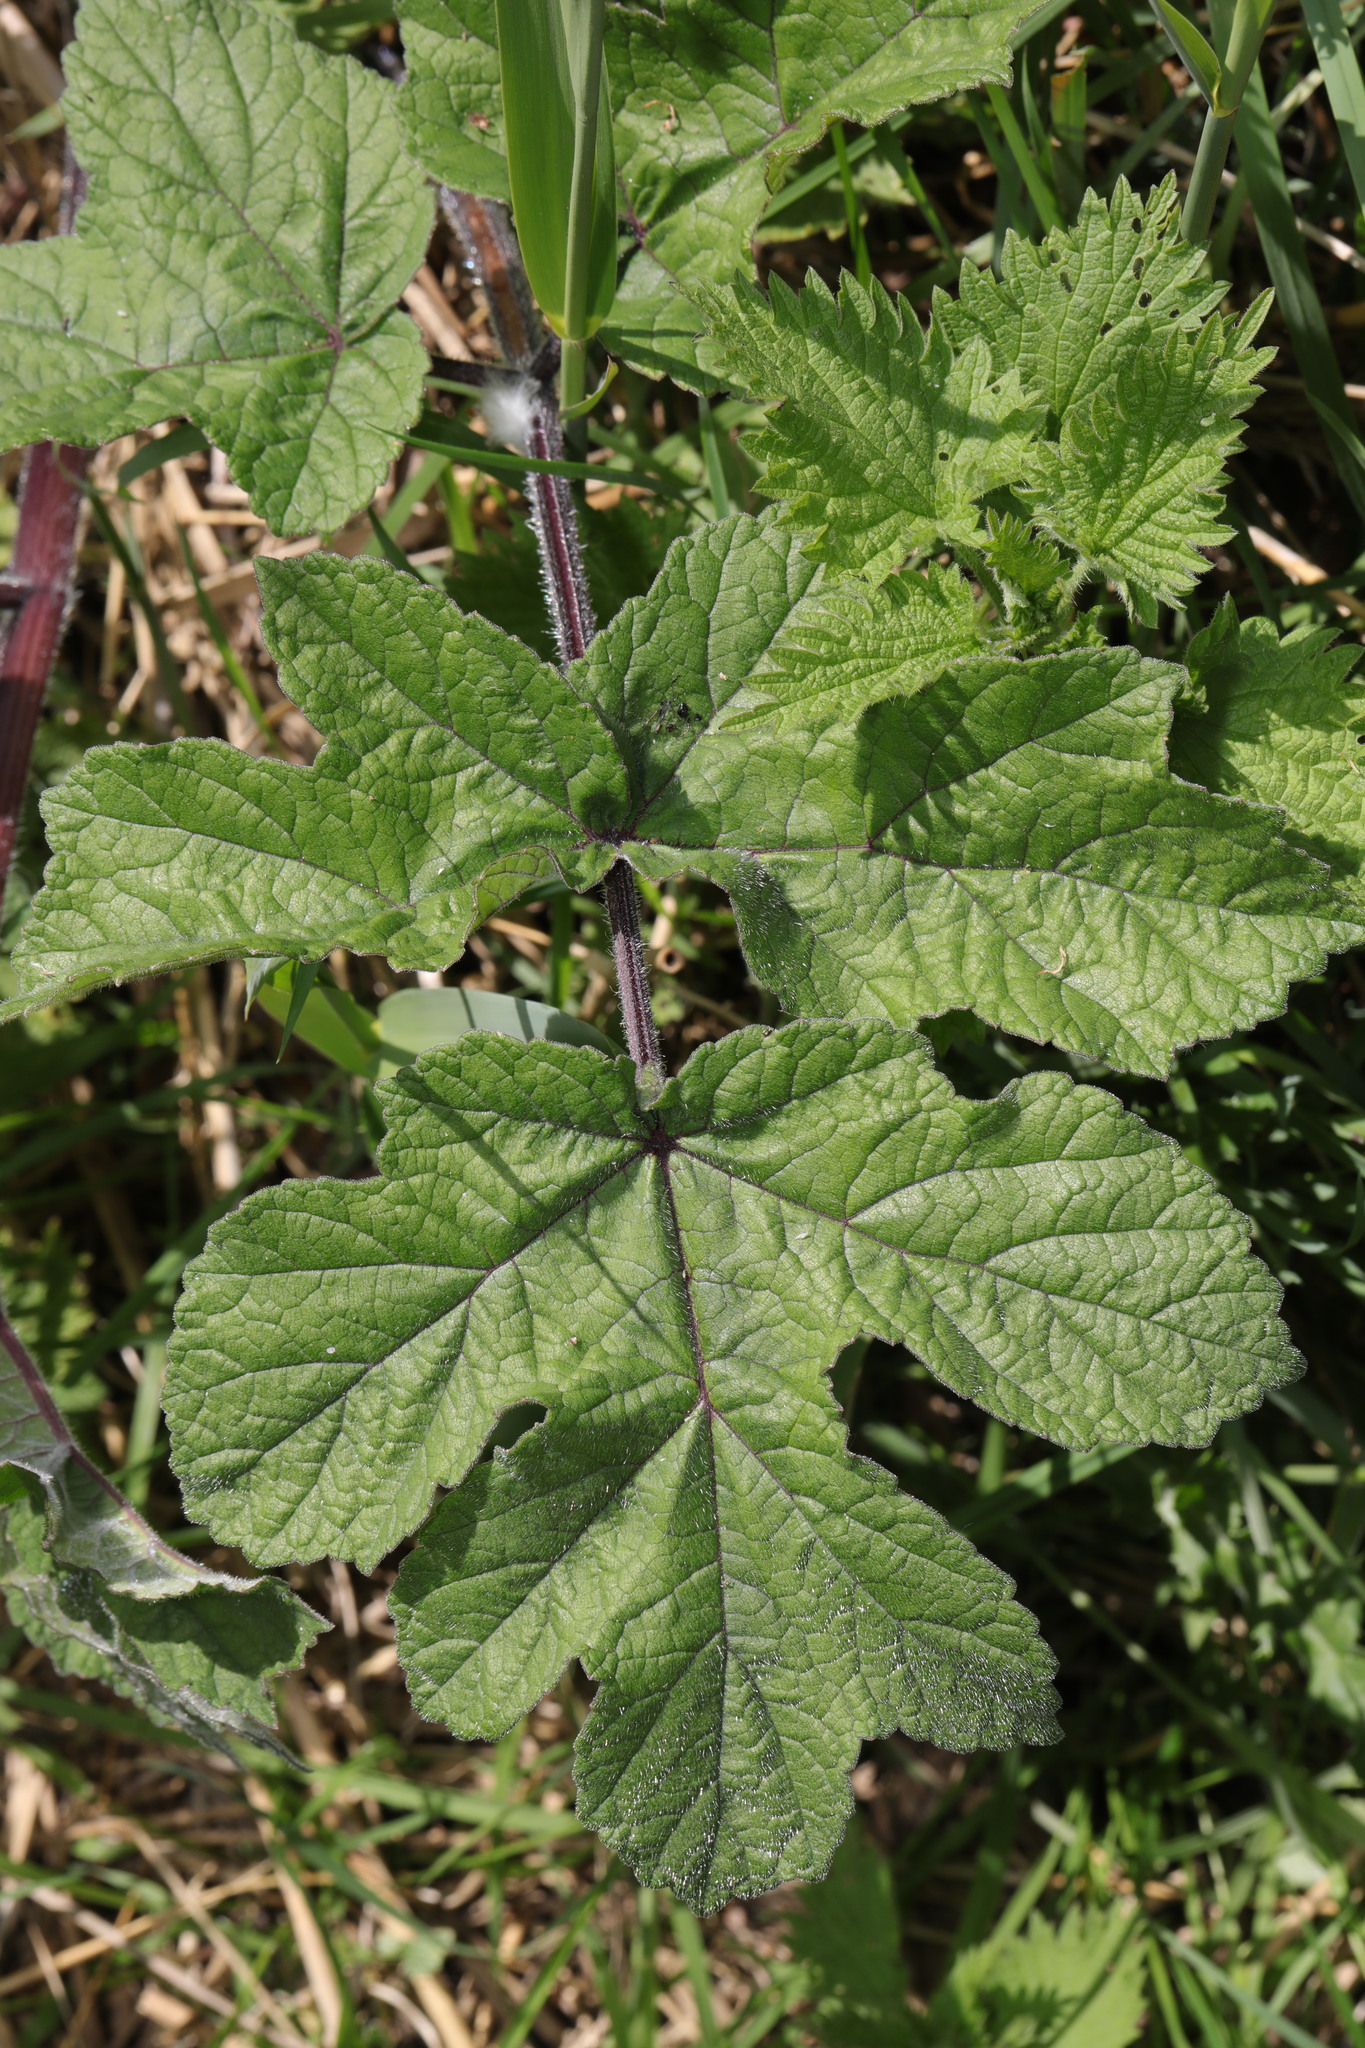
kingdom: Plantae
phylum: Tracheophyta
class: Magnoliopsida
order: Apiales
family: Apiaceae
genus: Heracleum
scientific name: Heracleum sphondylium
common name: Hogweed
